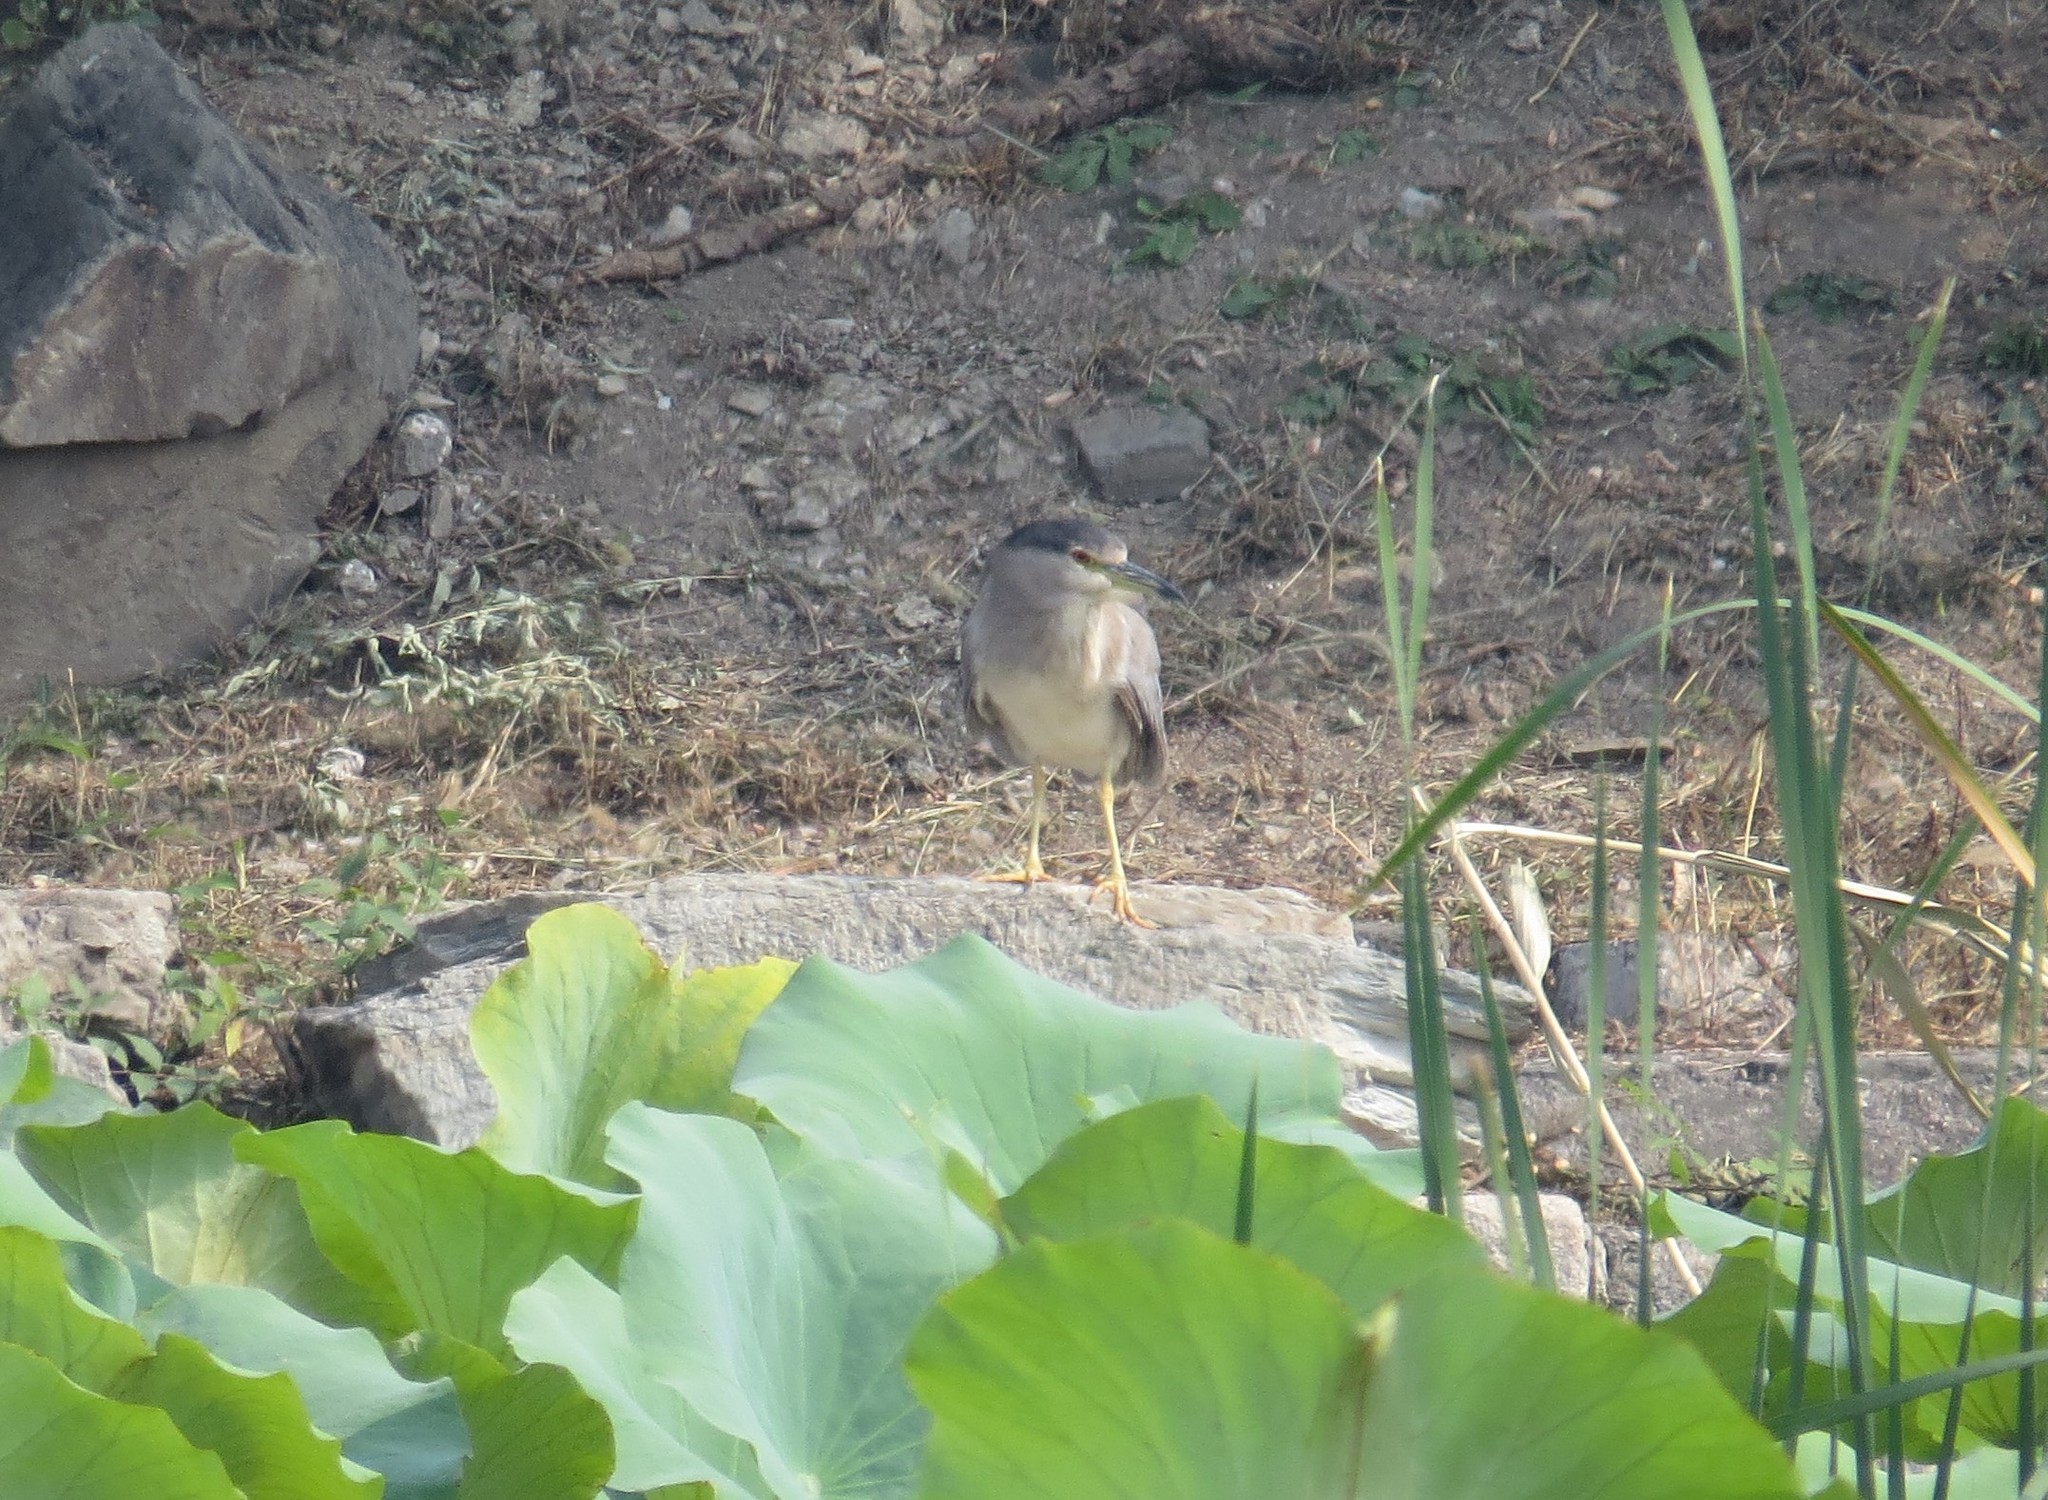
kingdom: Animalia
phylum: Chordata
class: Aves
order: Pelecaniformes
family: Ardeidae
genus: Nycticorax
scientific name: Nycticorax nycticorax
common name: Black-crowned night heron
